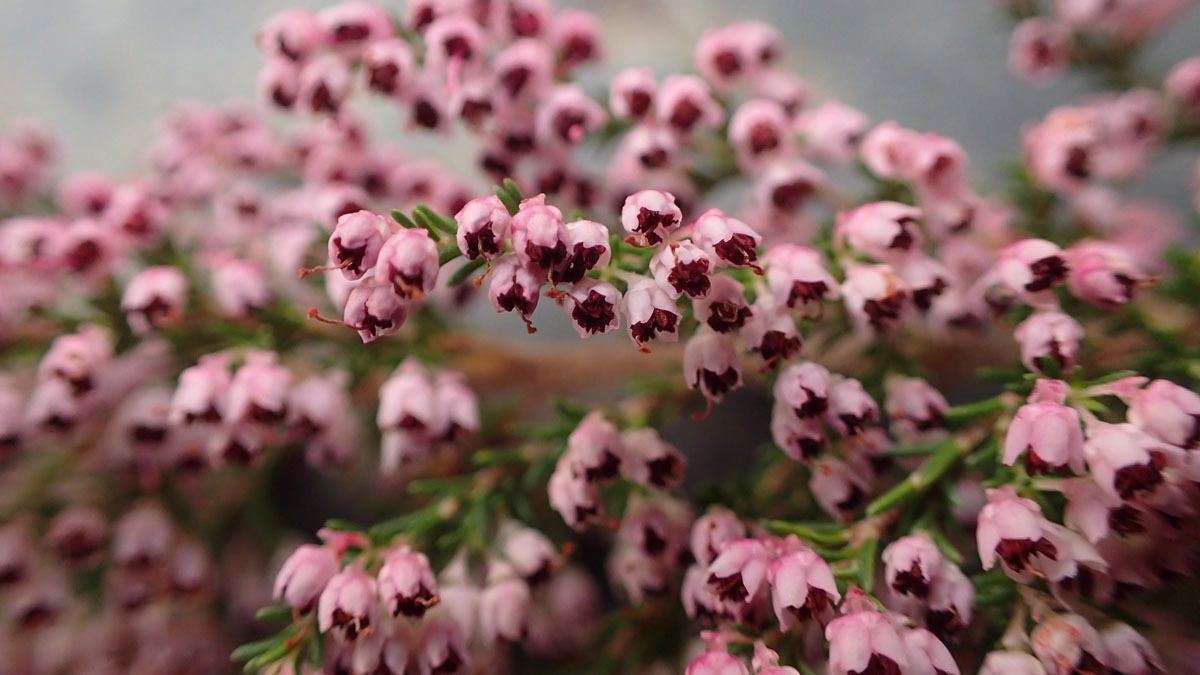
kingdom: Plantae
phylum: Tracheophyta
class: Magnoliopsida
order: Ericales
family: Ericaceae
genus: Erica
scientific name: Erica sparsa
